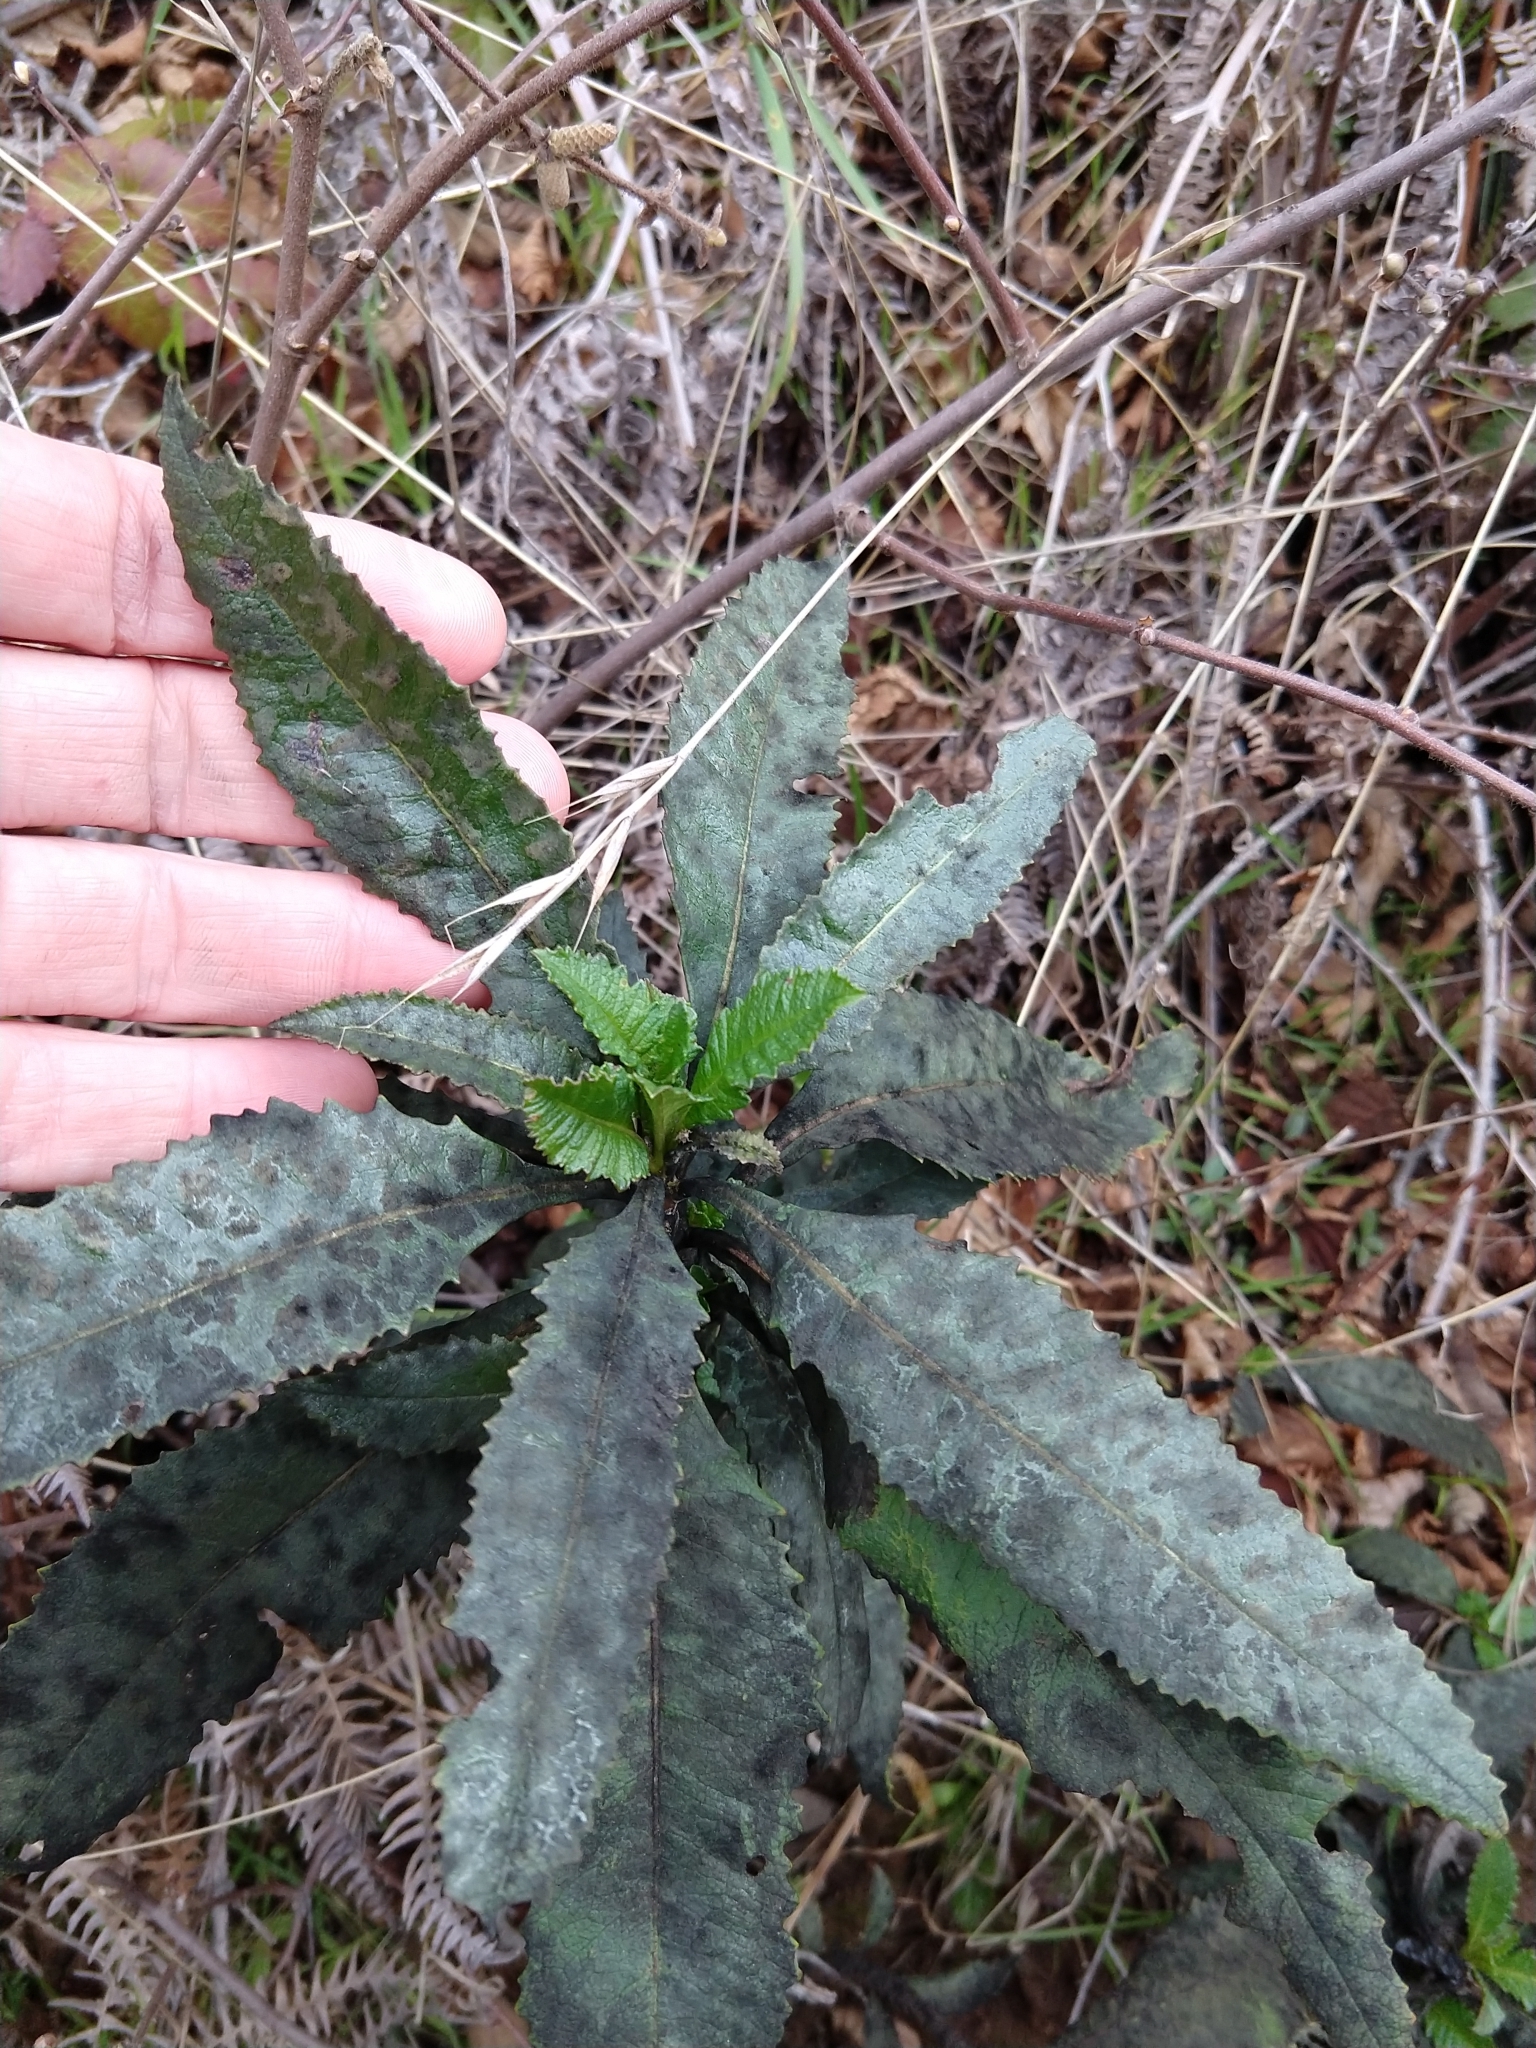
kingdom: Plantae
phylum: Tracheophyta
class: Magnoliopsida
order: Boraginales
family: Namaceae
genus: Eriodictyon
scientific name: Eriodictyon californicum
